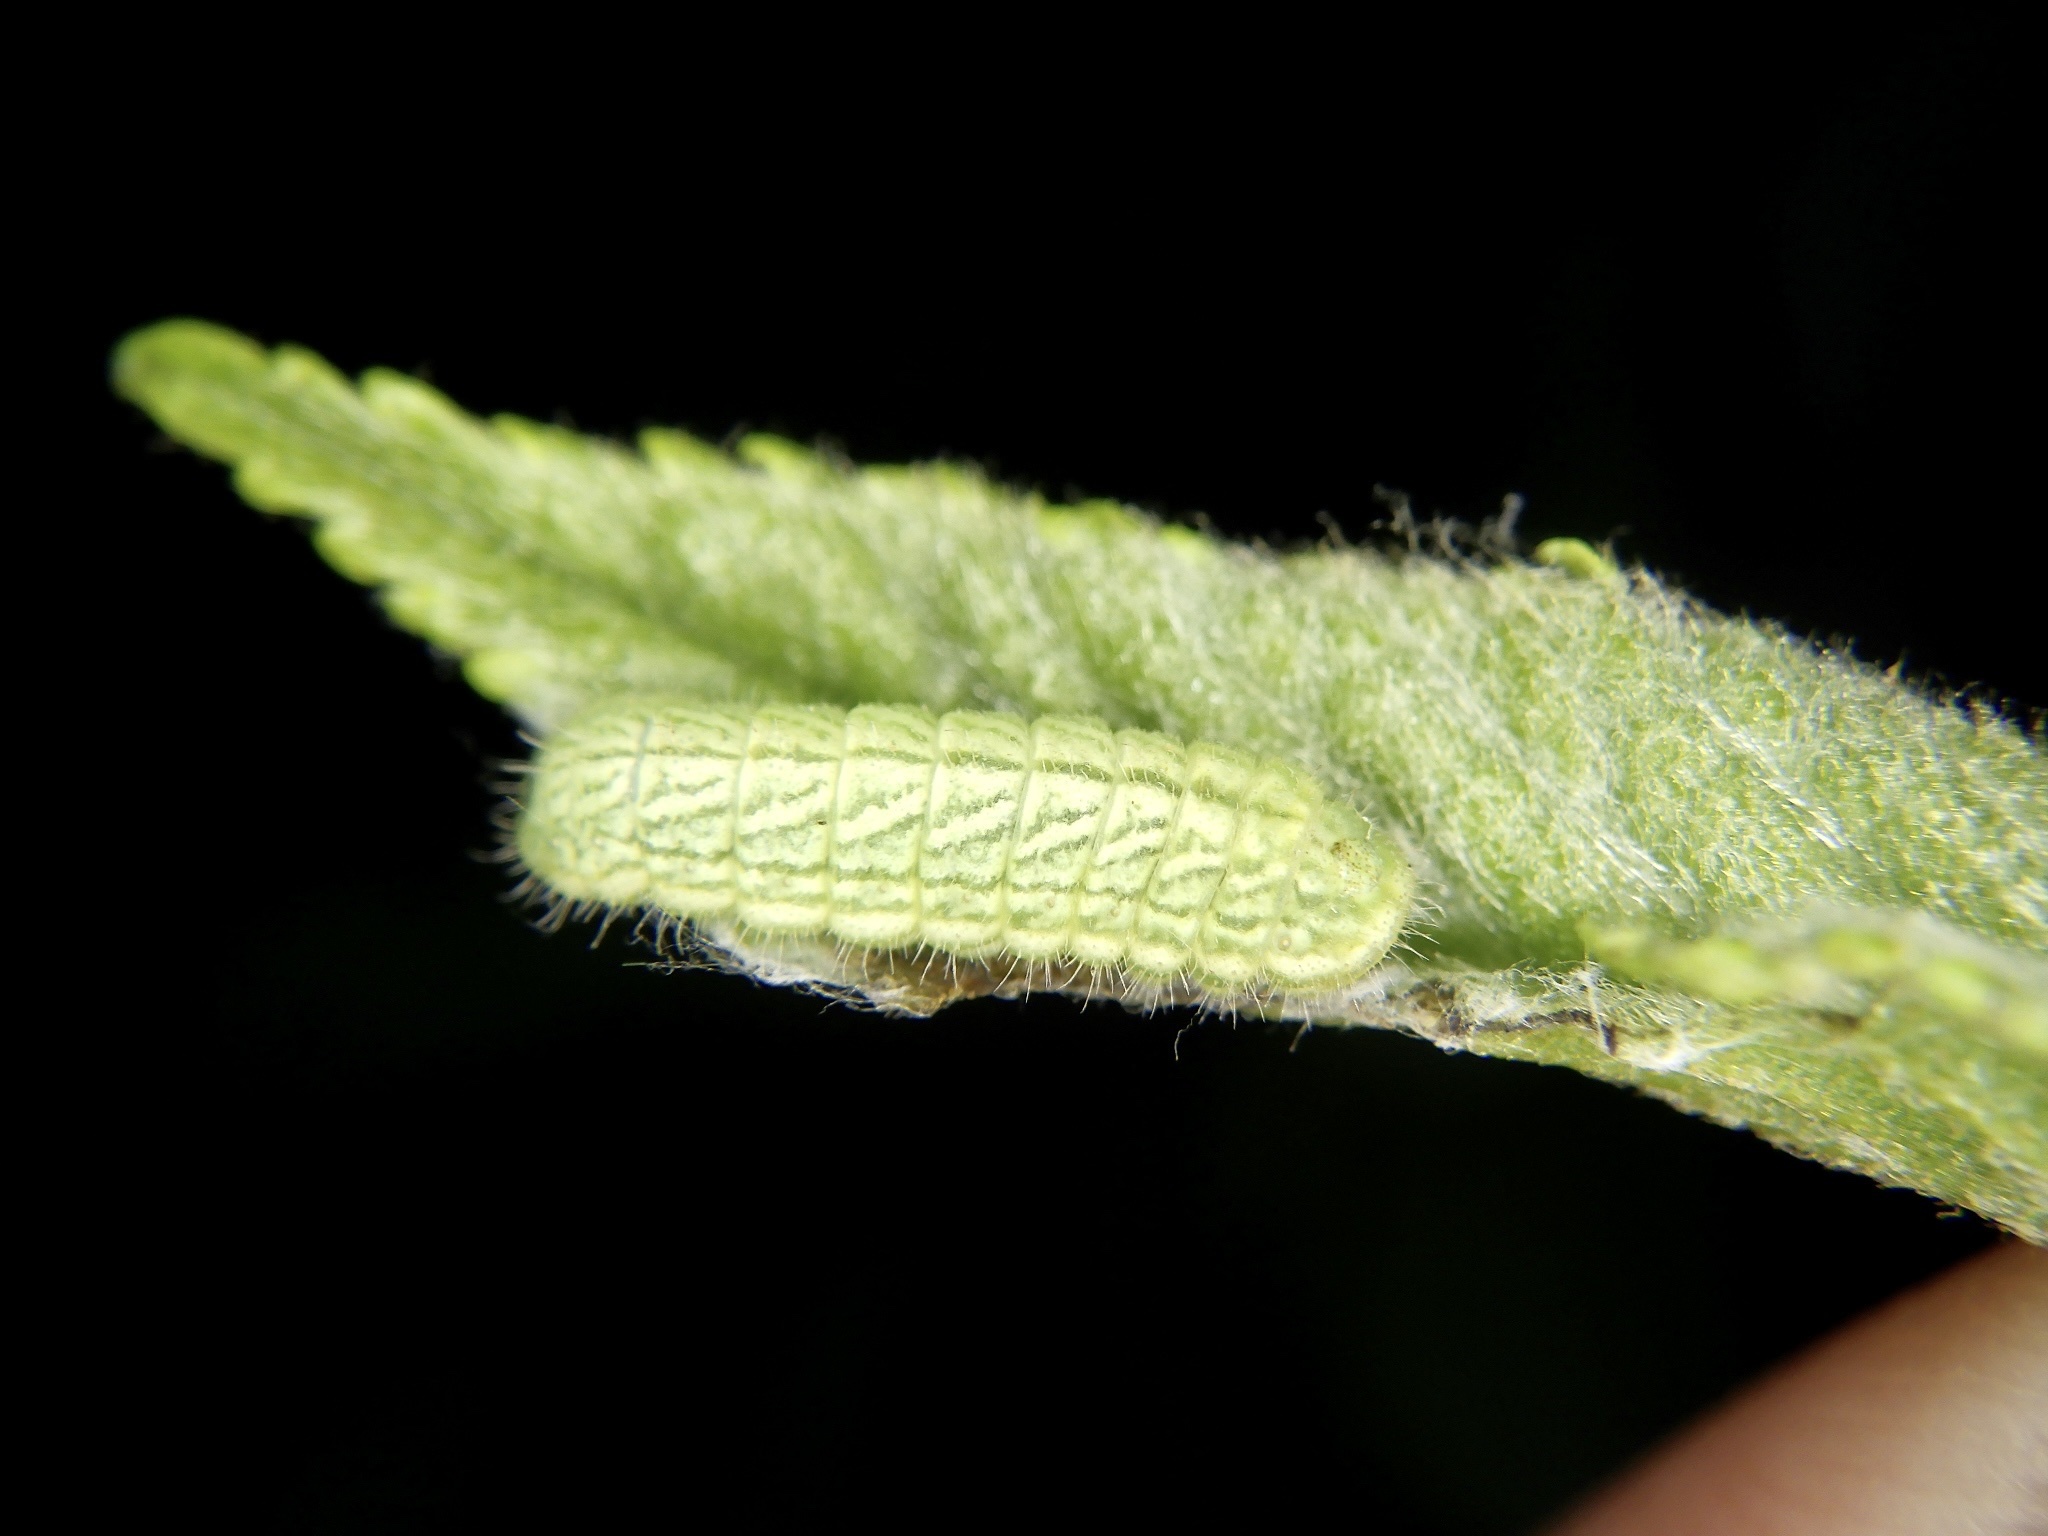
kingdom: Animalia
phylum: Arthropoda
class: Insecta
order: Lepidoptera
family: Lycaenidae
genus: Neozephyrus
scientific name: Neozephyrus japonicus
